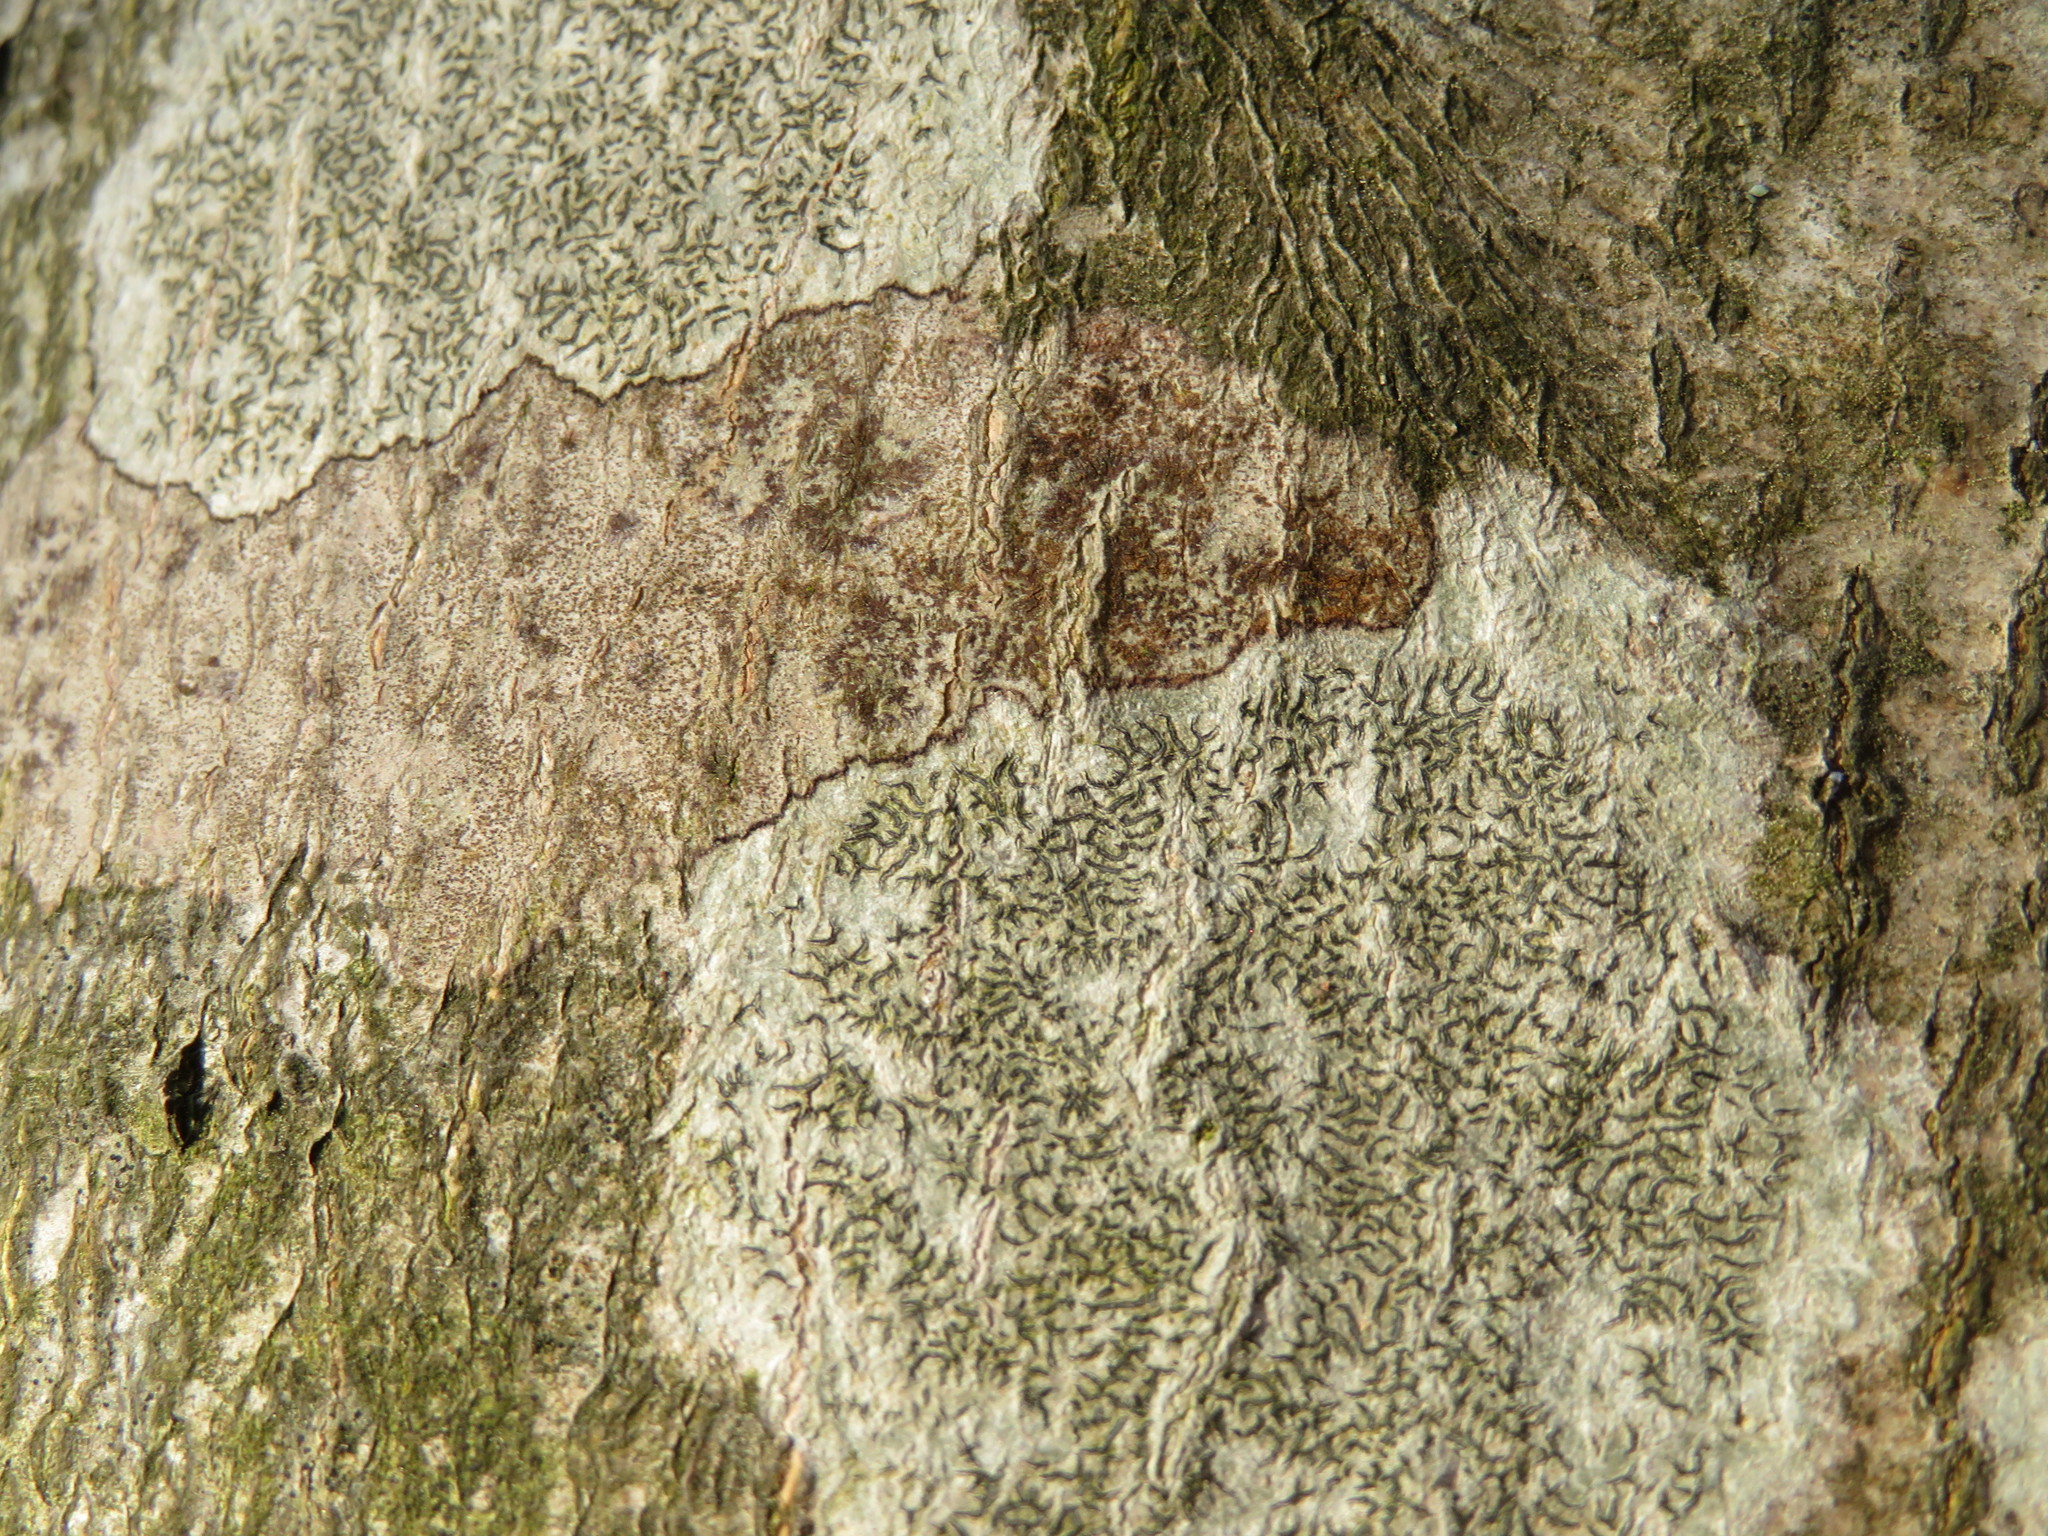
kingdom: Fungi
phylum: Ascomycota
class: Lecanoromycetes
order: Ostropales
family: Graphidaceae
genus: Graphis
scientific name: Graphis scripta
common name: Script lichen
